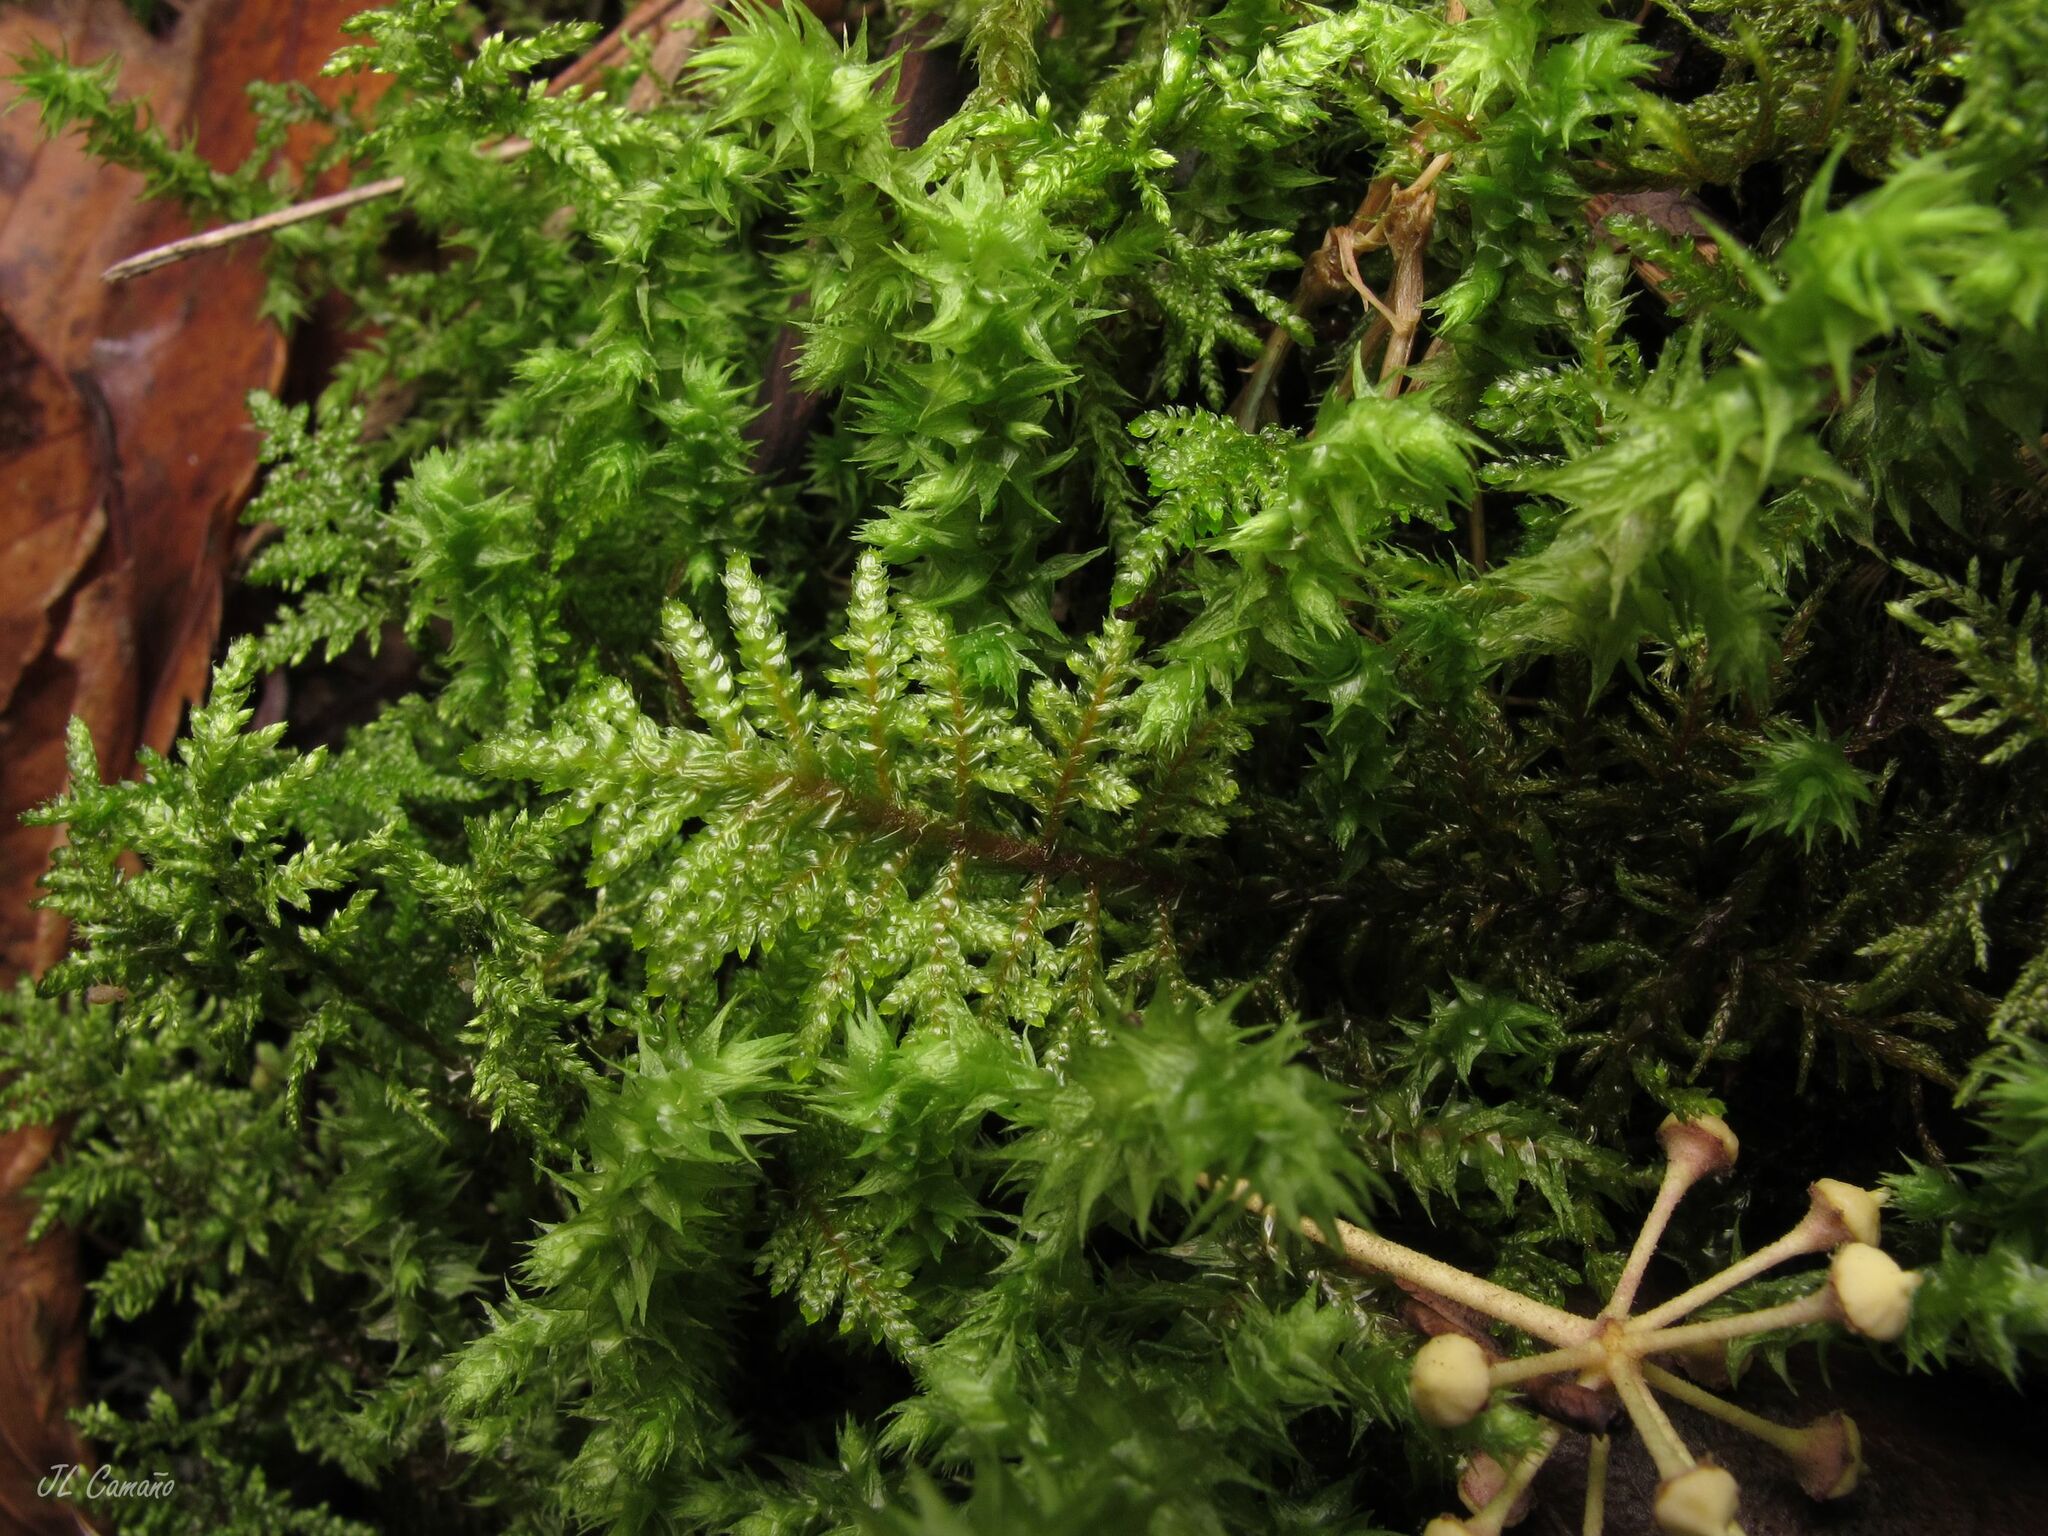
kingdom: Plantae
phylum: Bryophyta
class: Bryopsida
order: Hypnales
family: Myuriaceae
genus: Hyocomium
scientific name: Hyocomium armoricum
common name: Flagellate feather-moss
